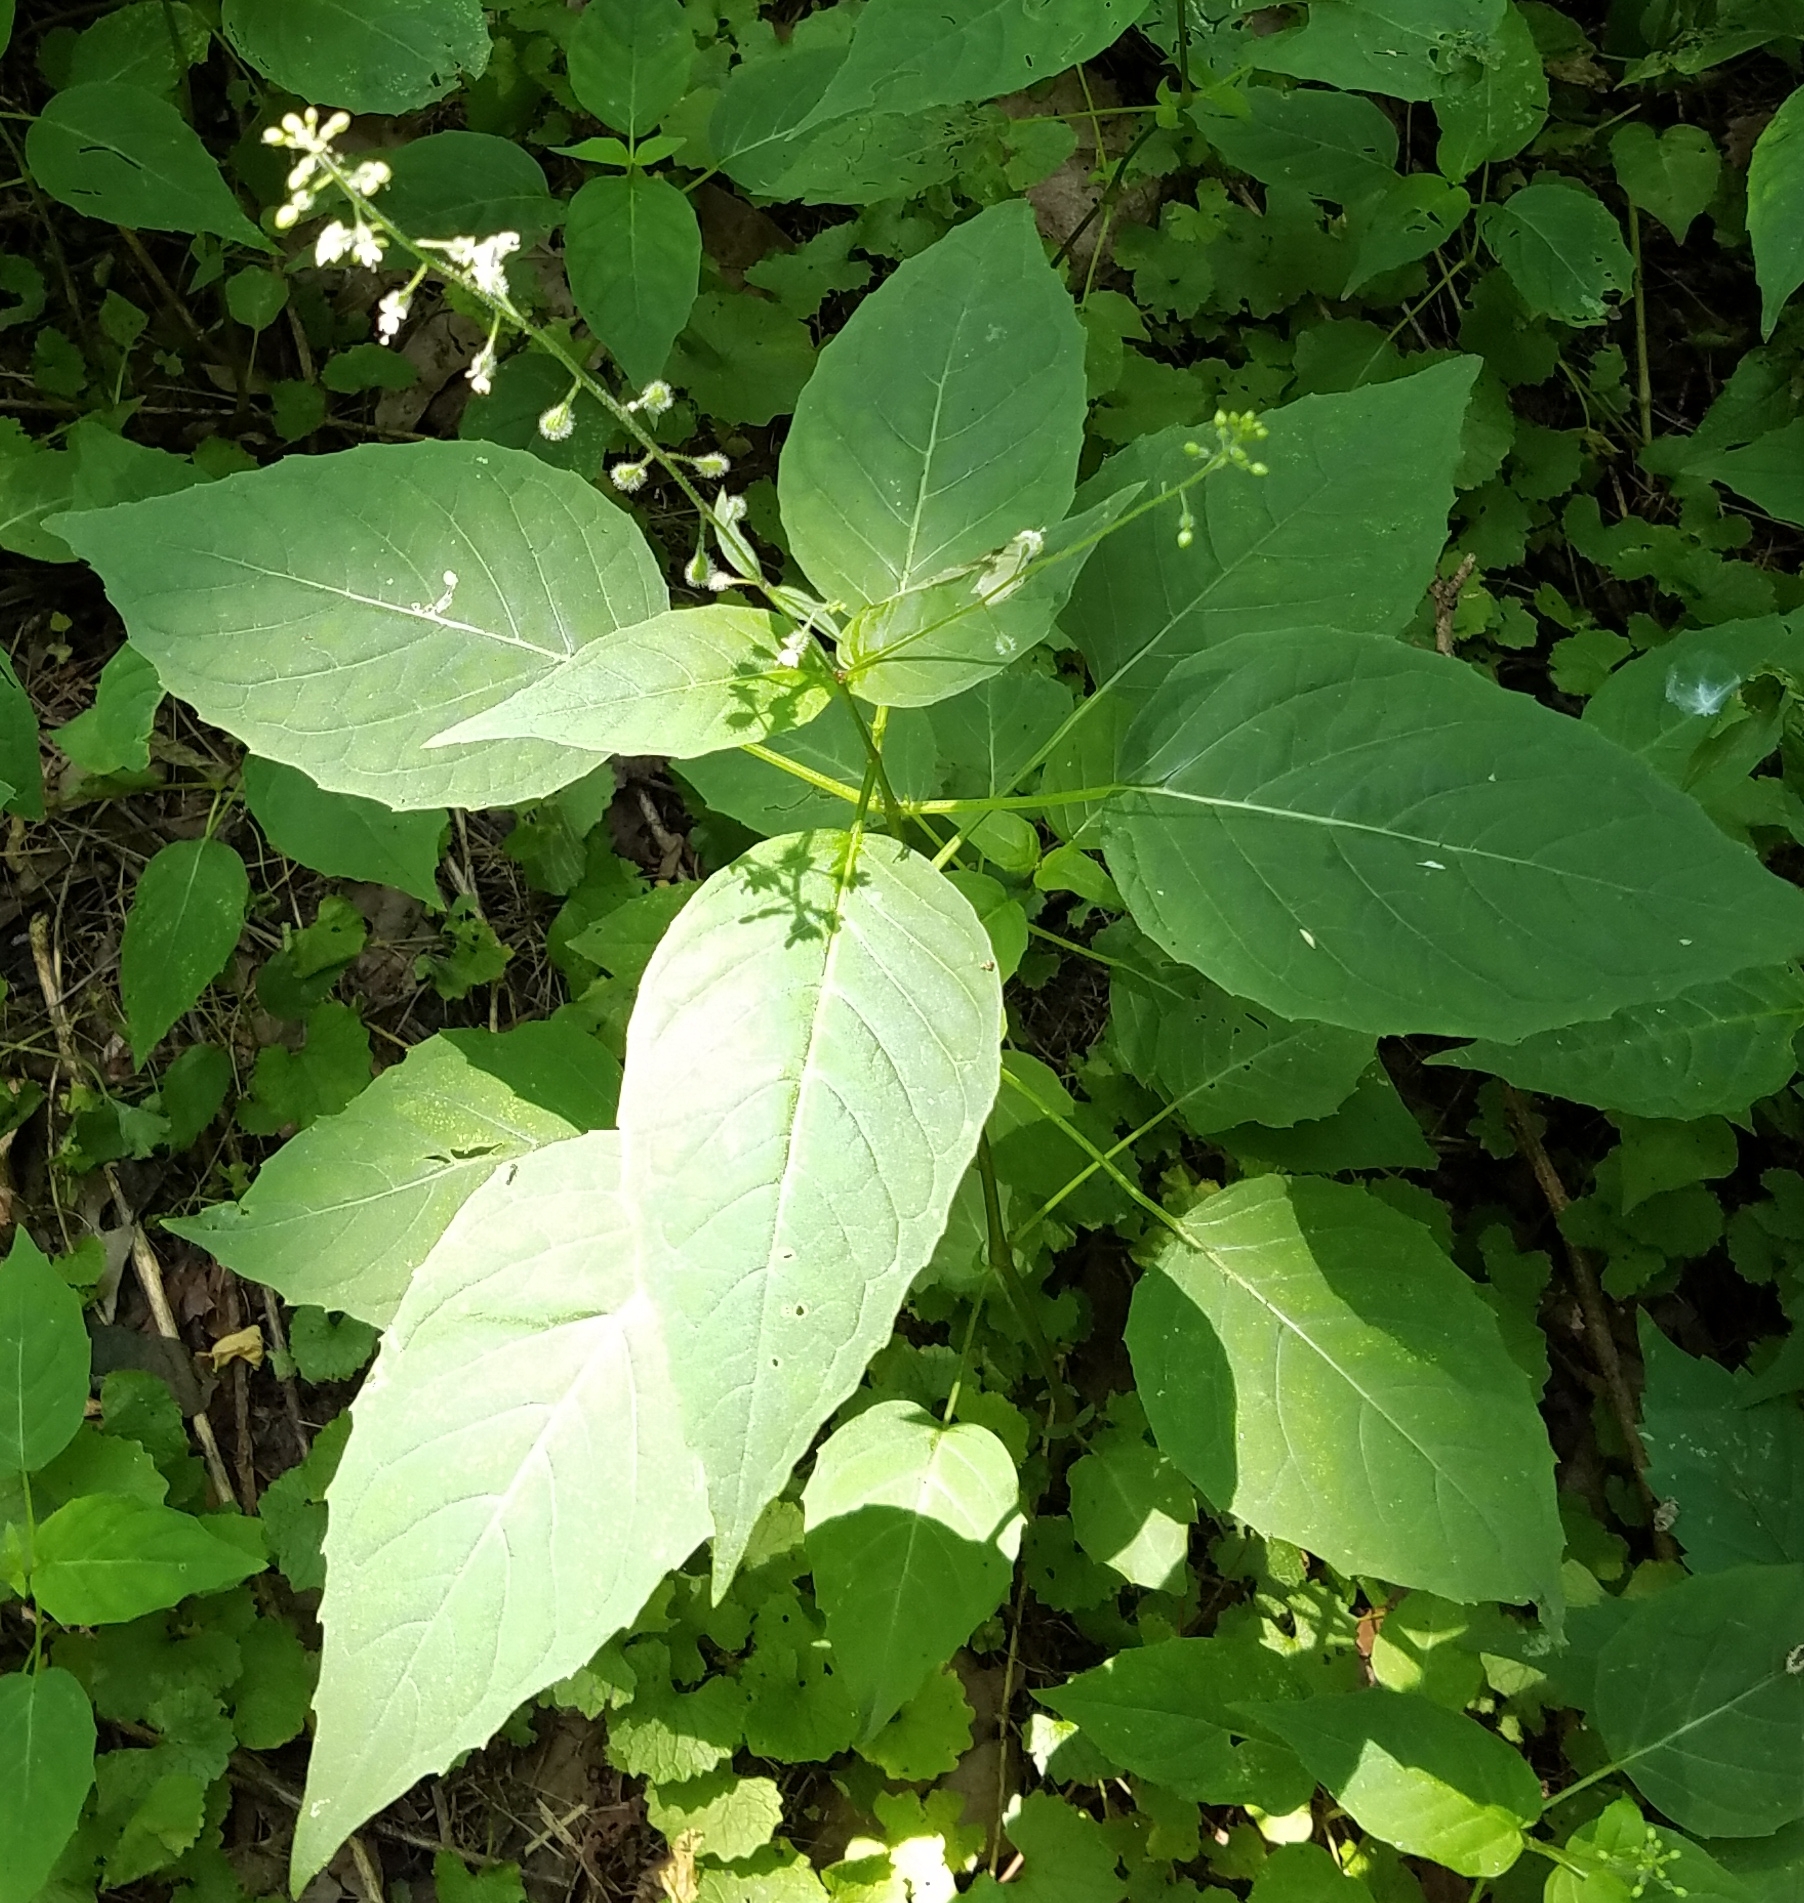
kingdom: Plantae
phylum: Tracheophyta
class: Magnoliopsida
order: Myrtales
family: Onagraceae
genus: Circaea
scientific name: Circaea canadensis
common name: Broad-leaved enchanter's nightshade
